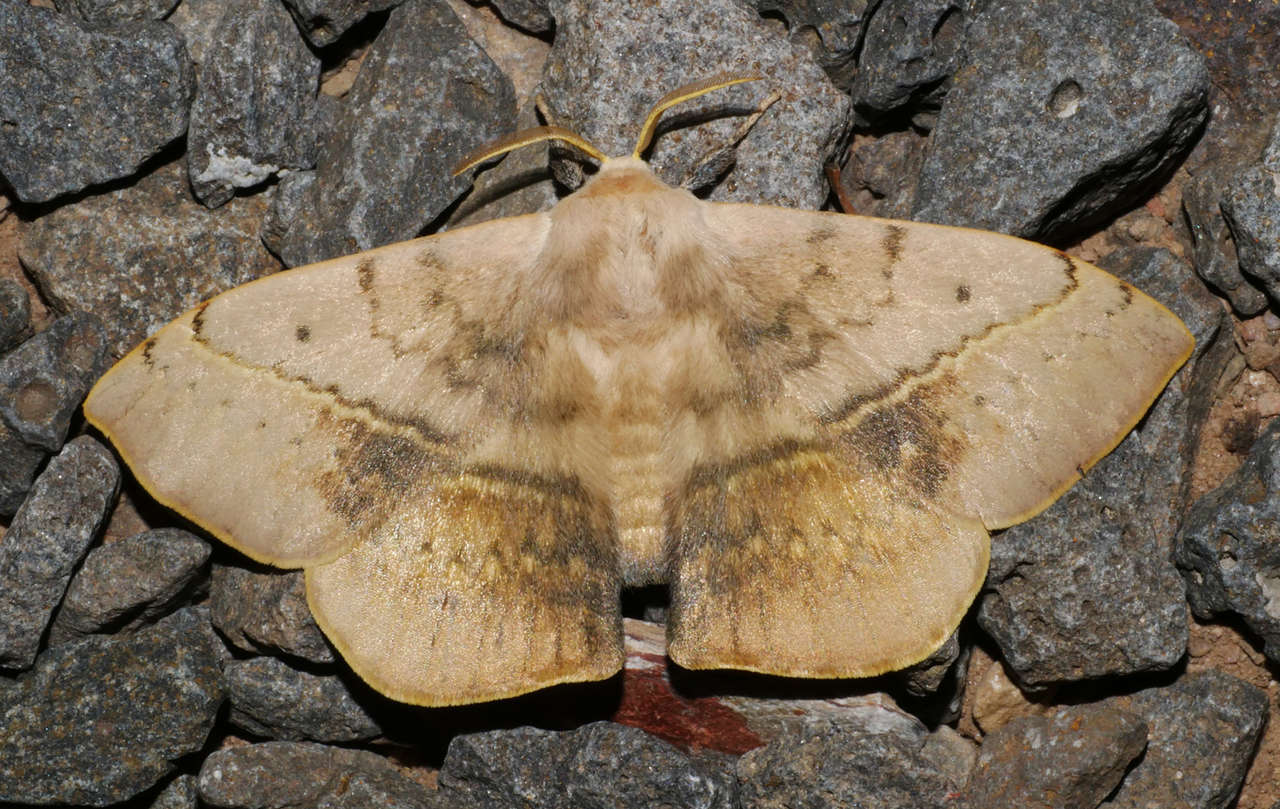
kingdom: Animalia
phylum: Arthropoda
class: Insecta
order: Lepidoptera
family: Anthelidae
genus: Anthela
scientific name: Anthela varia
